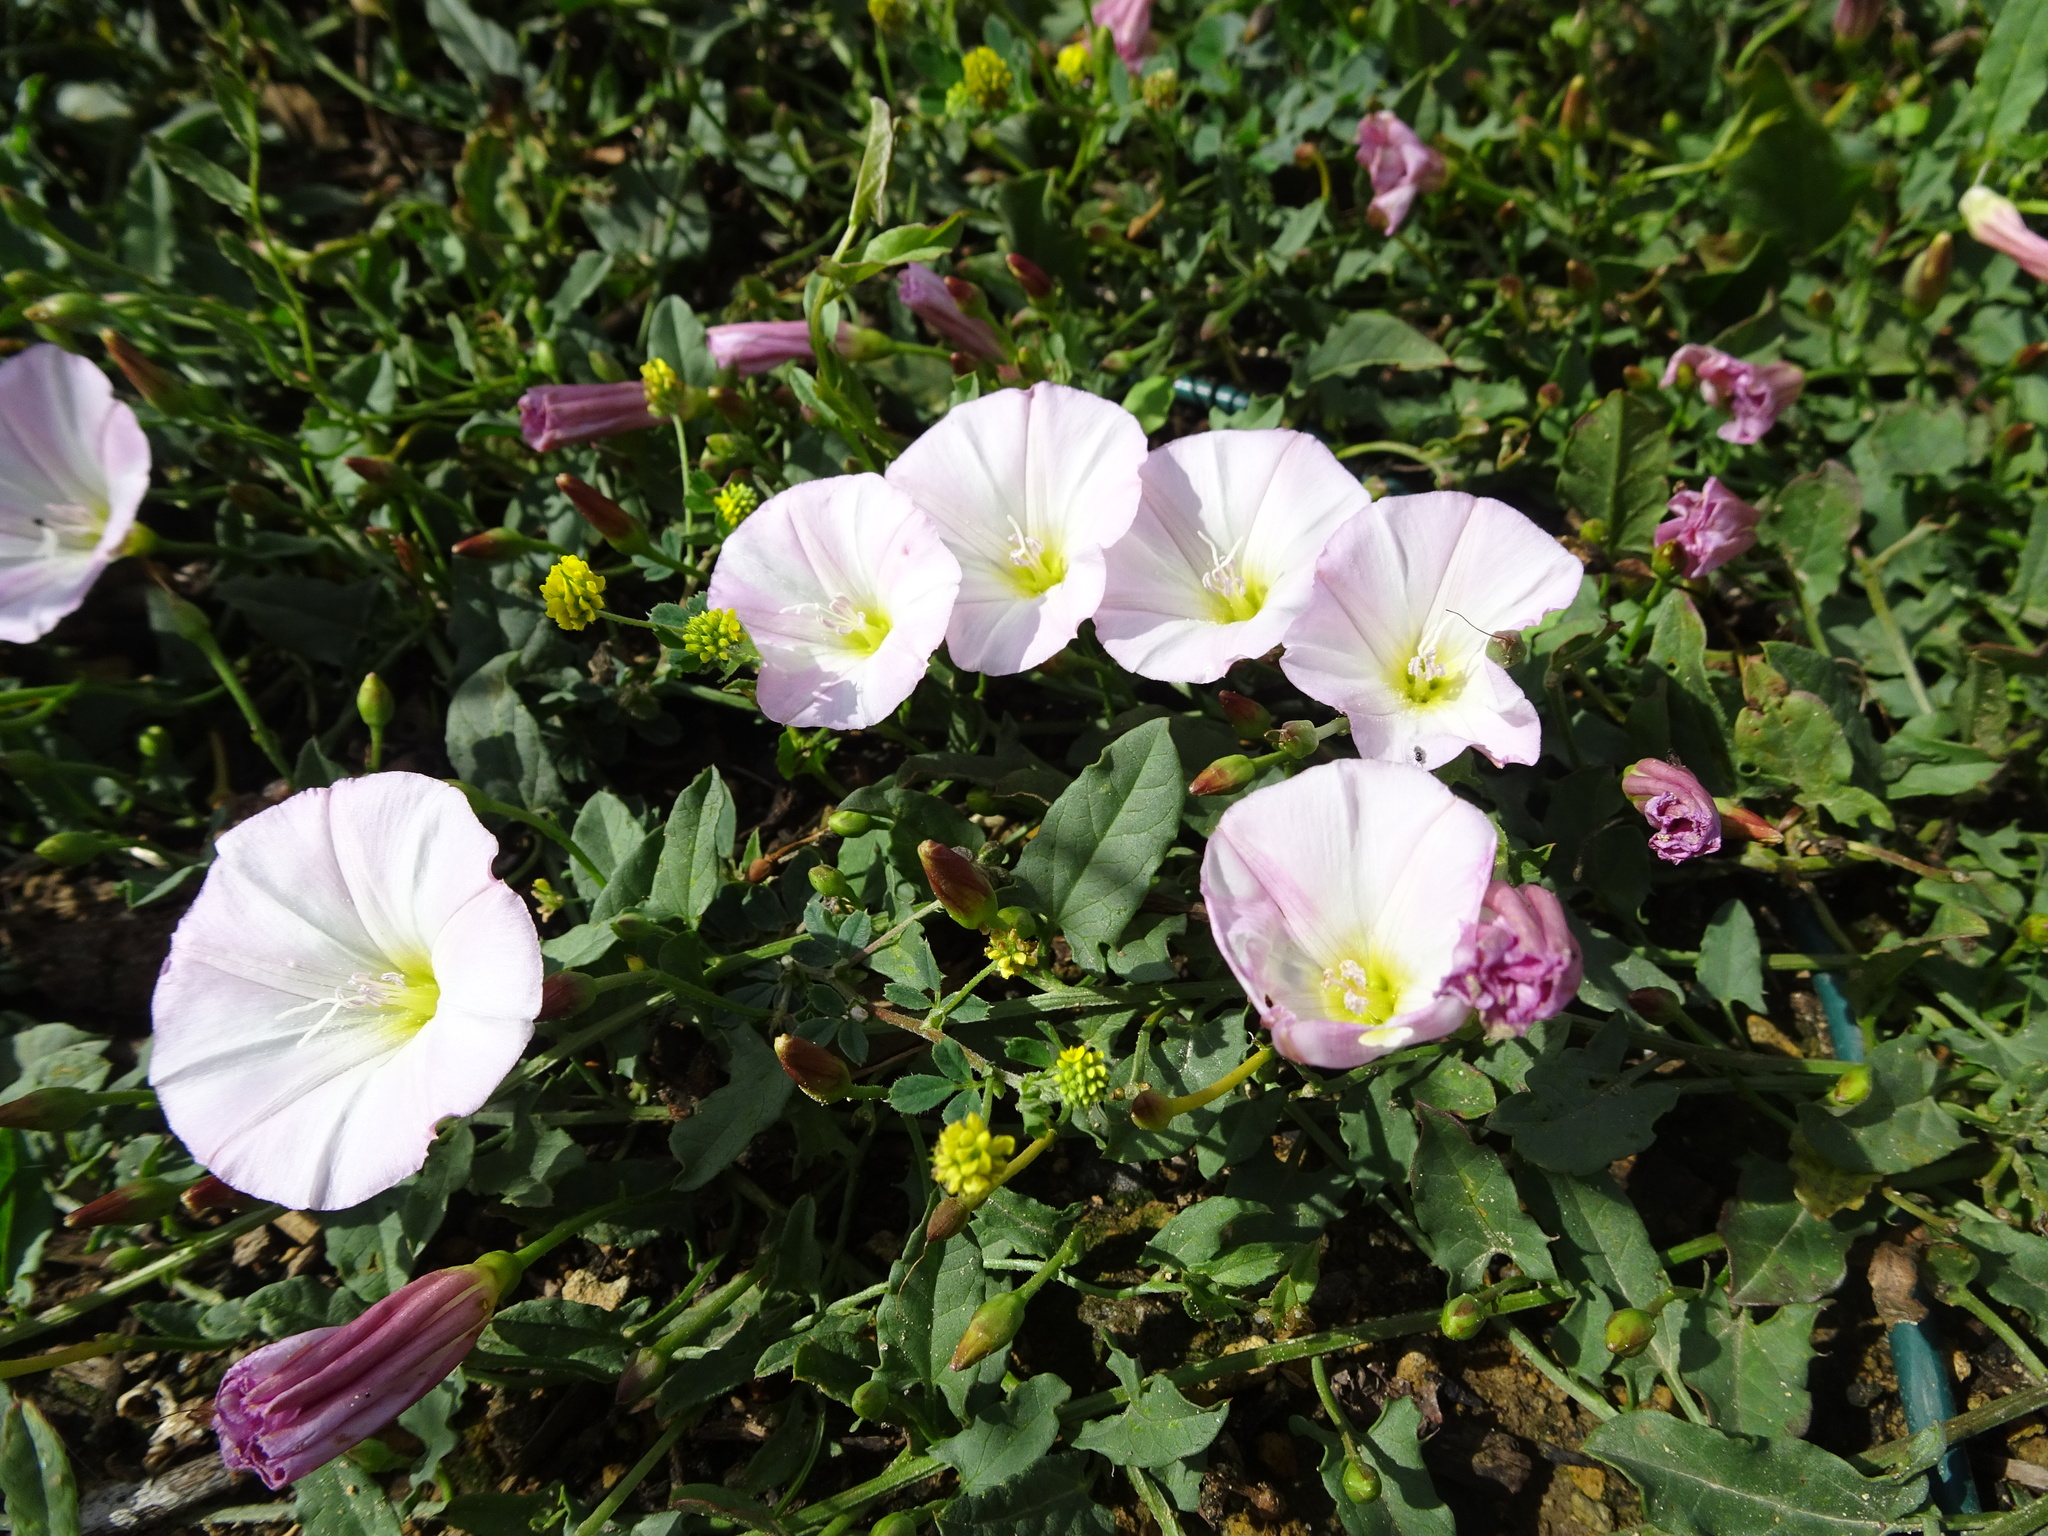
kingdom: Plantae
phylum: Tracheophyta
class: Magnoliopsida
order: Solanales
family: Convolvulaceae
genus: Convolvulus
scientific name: Convolvulus arvensis
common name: Field bindweed
